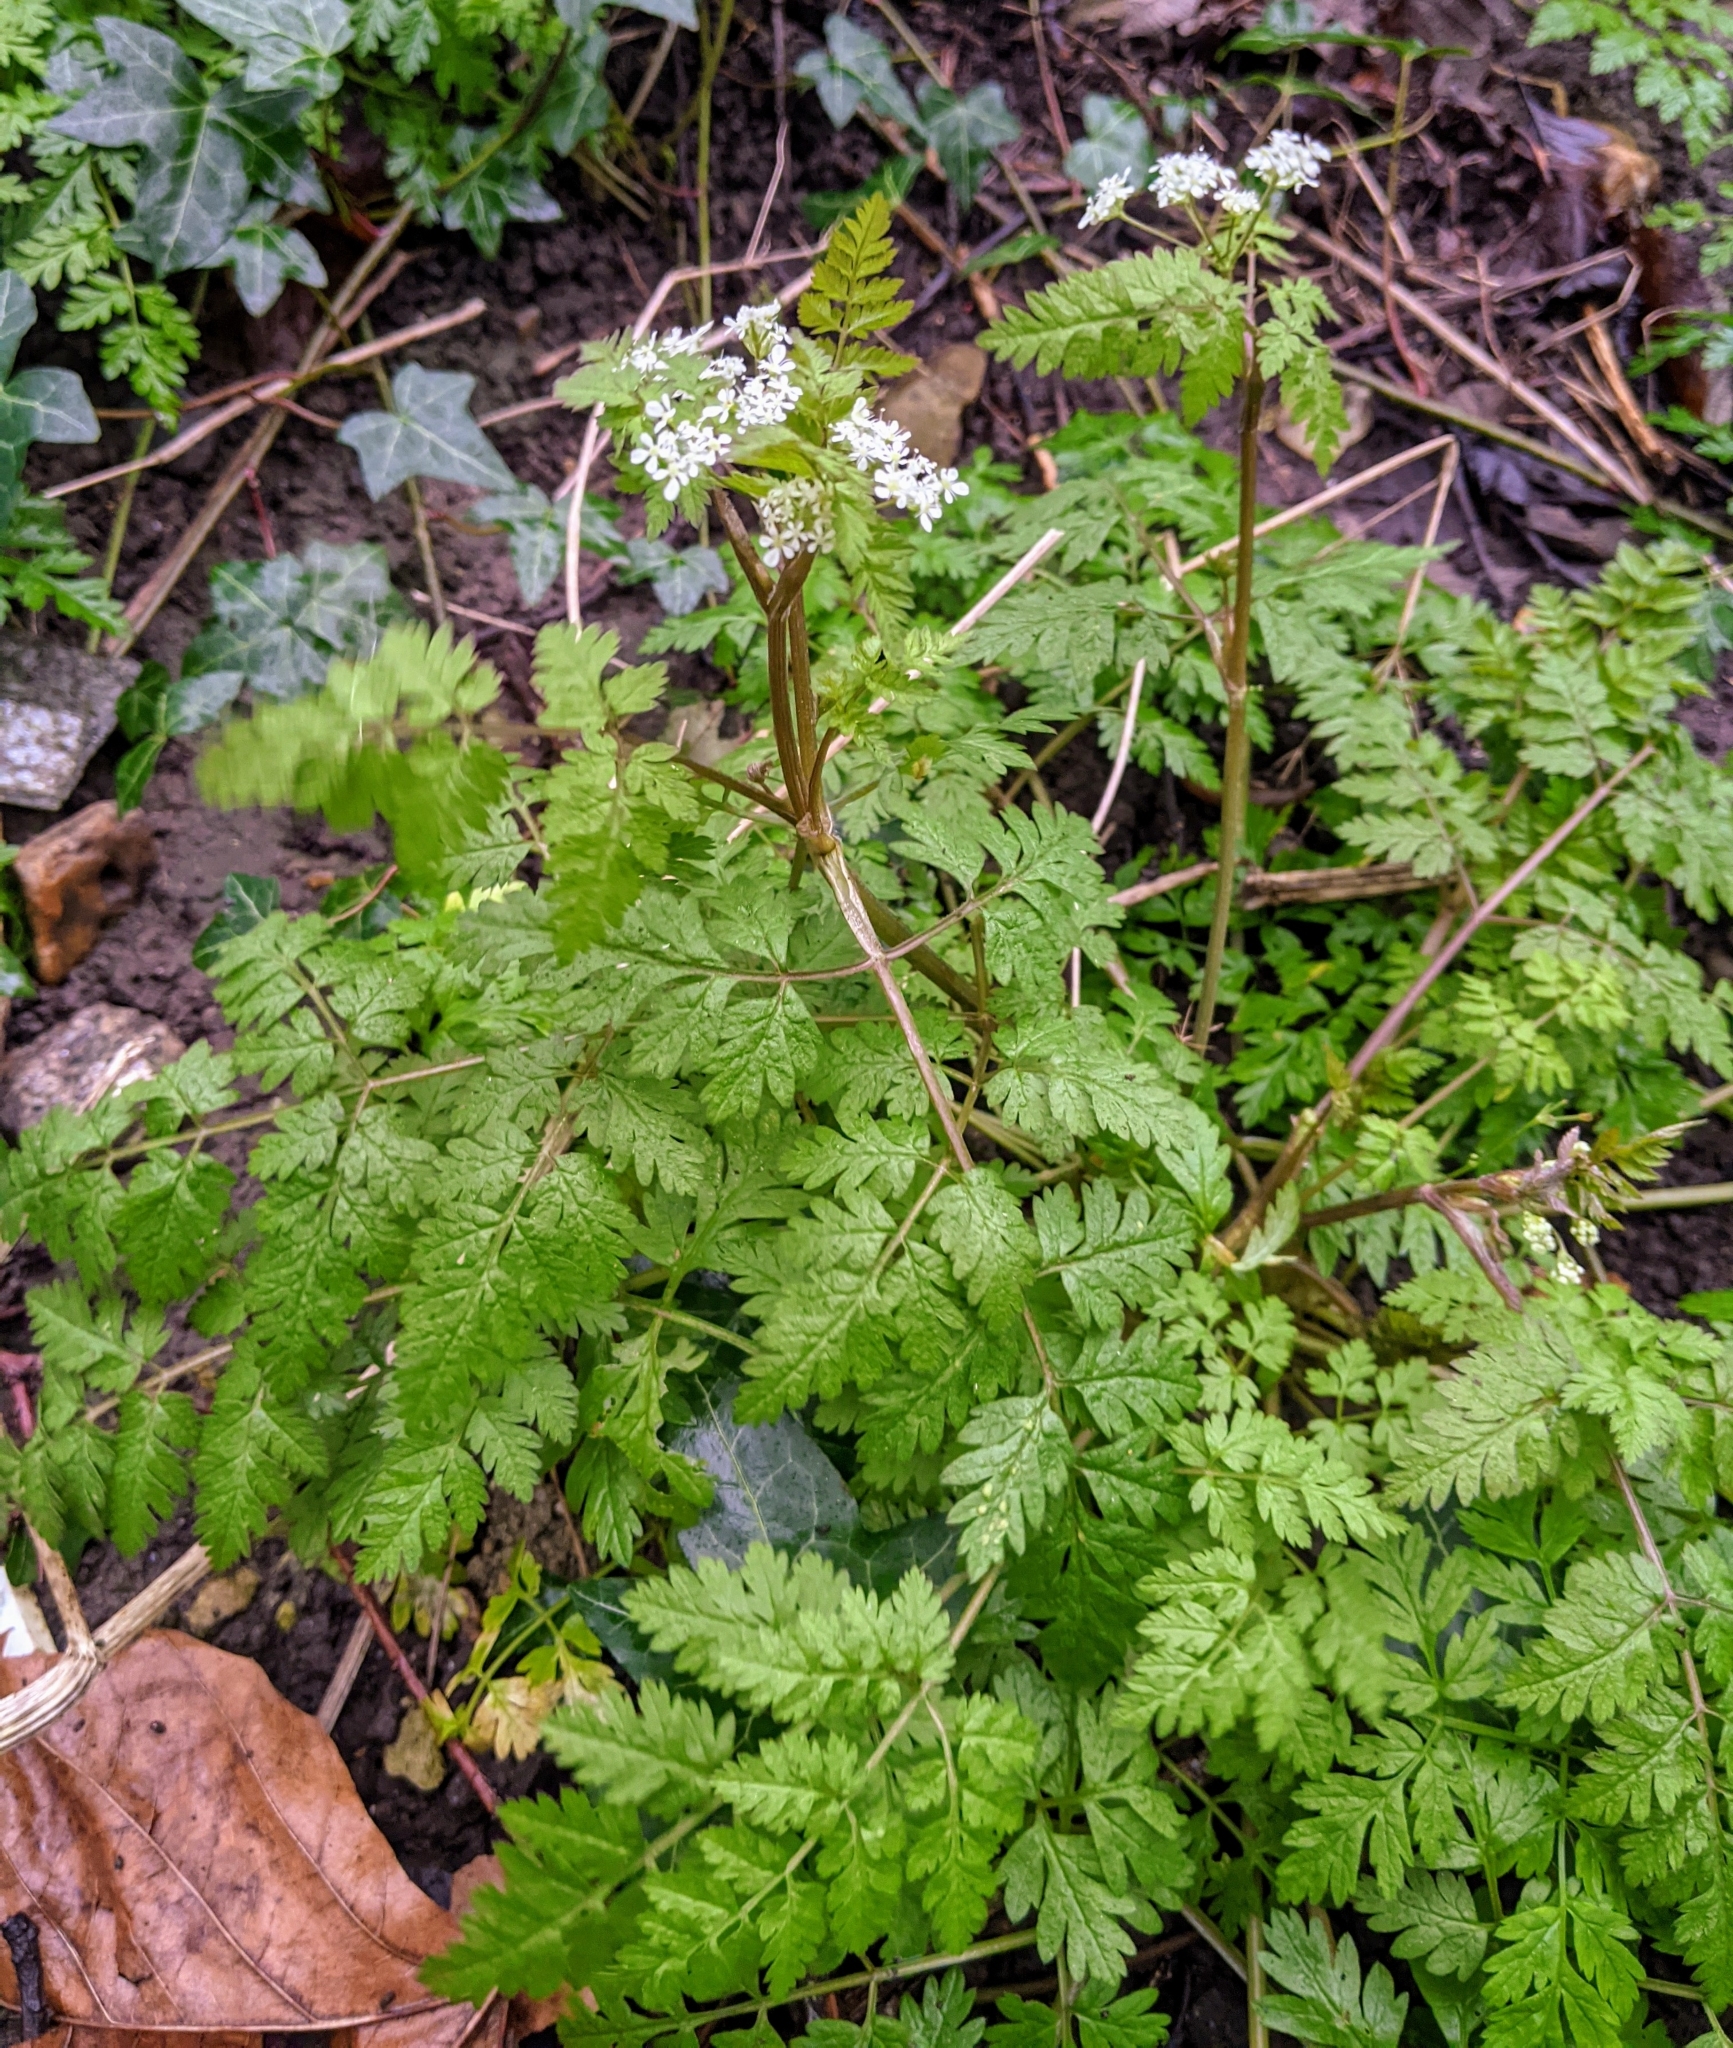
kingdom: Plantae
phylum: Tracheophyta
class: Magnoliopsida
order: Apiales
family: Apiaceae
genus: Anthriscus
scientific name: Anthriscus sylvestris
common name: Cow parsley
